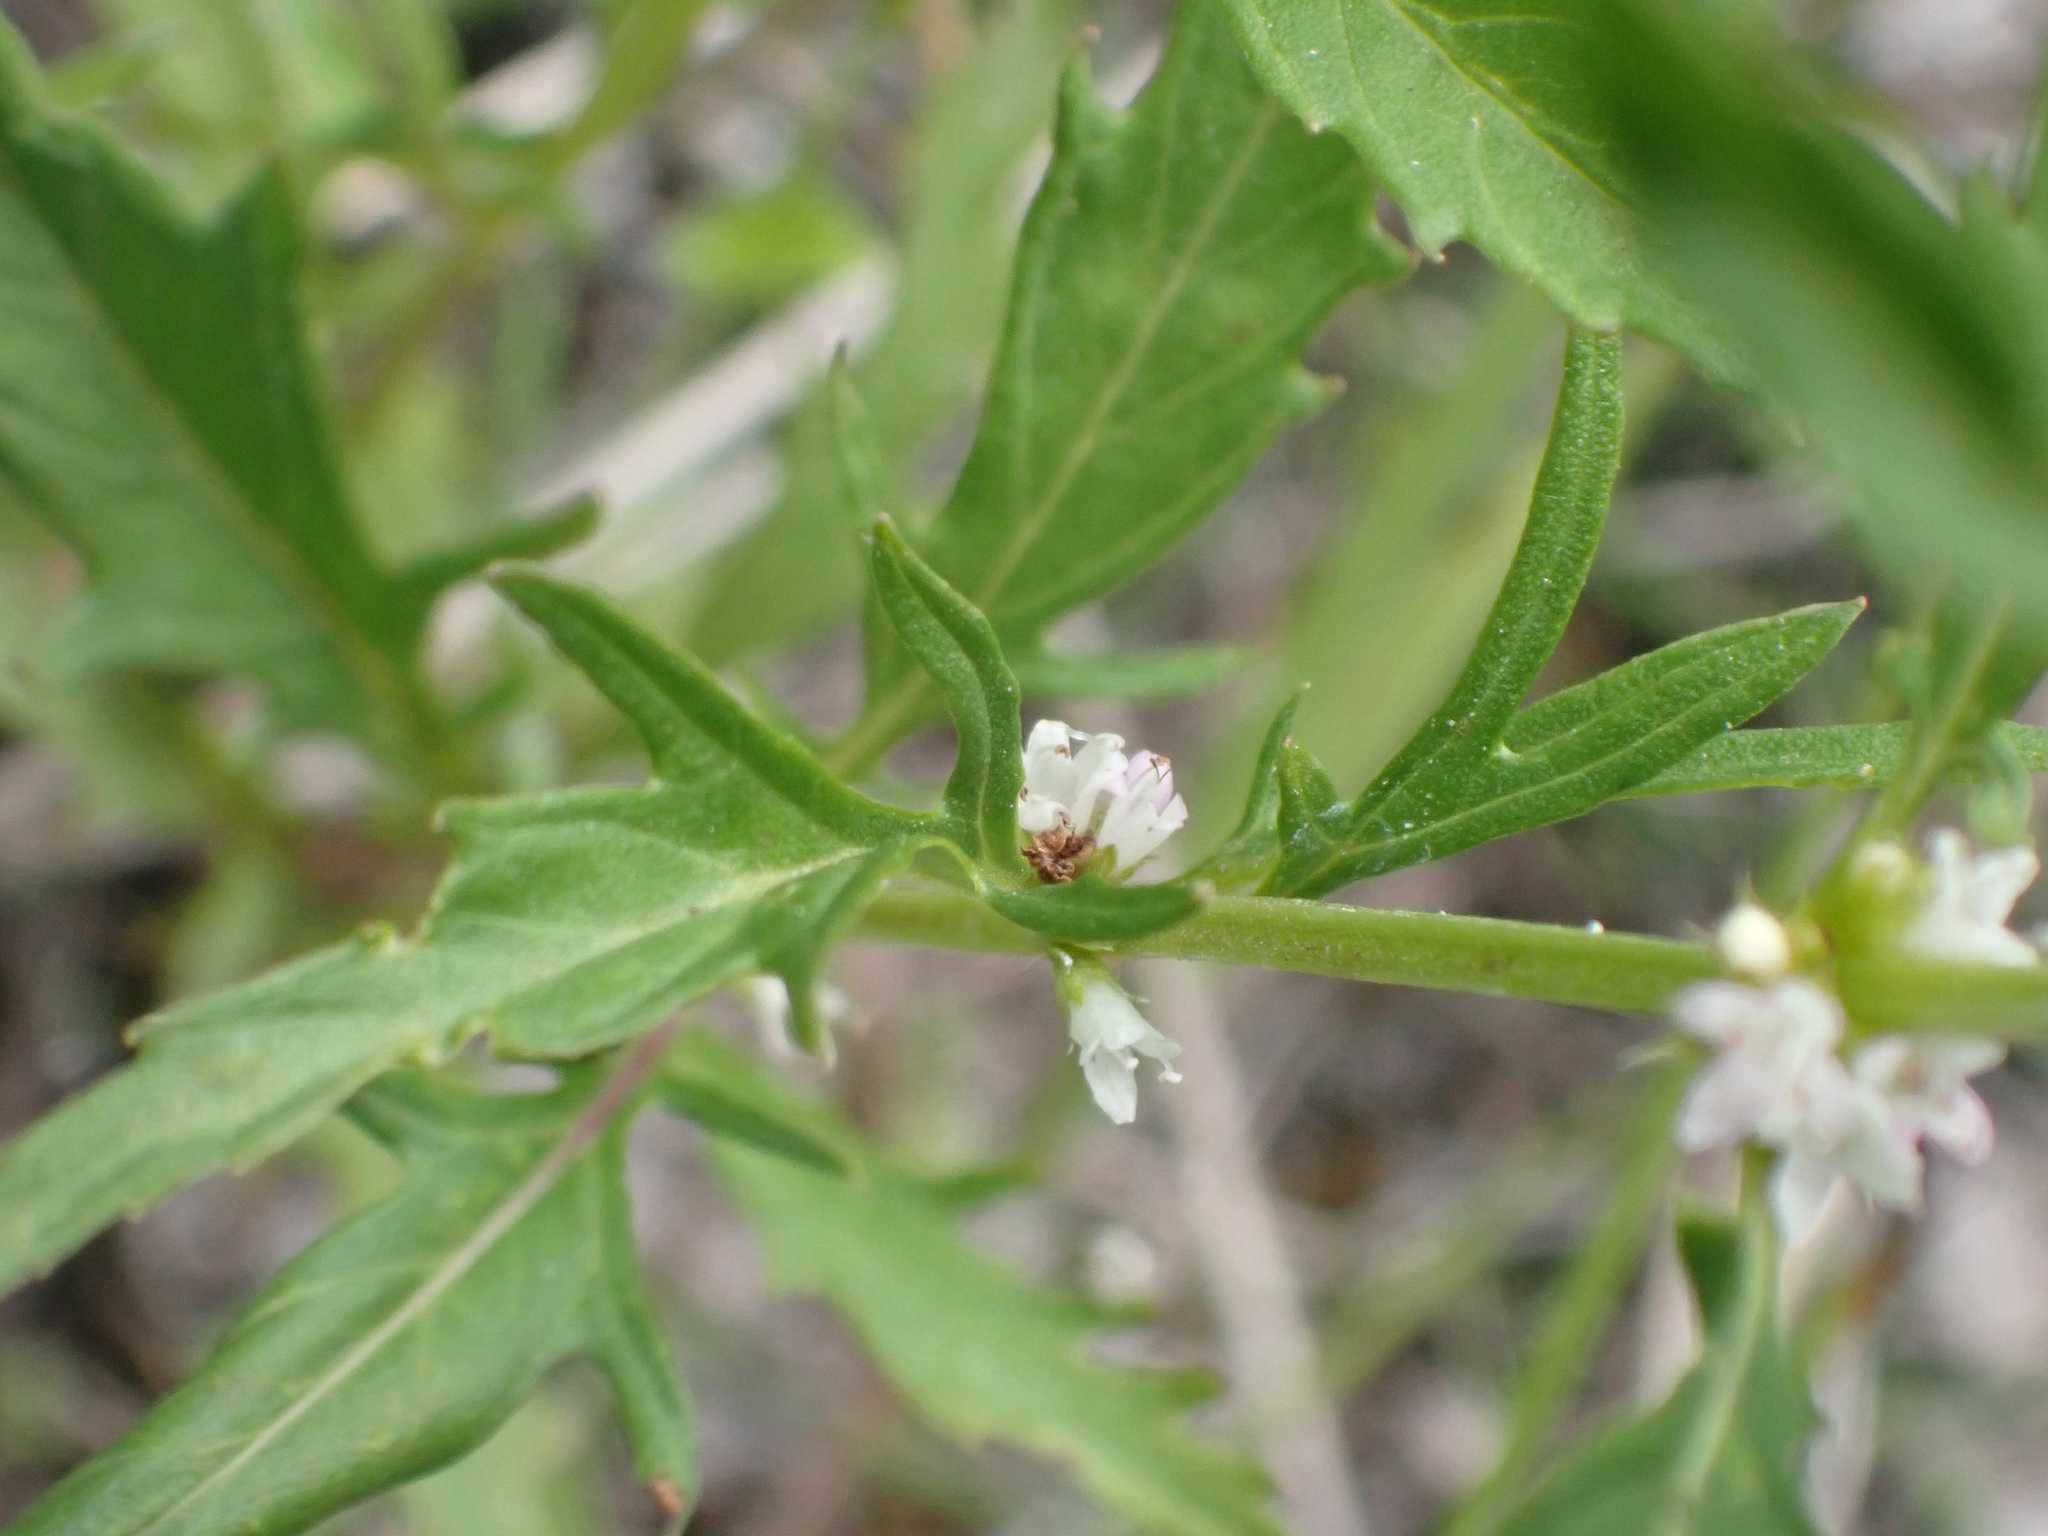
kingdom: Plantae
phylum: Tracheophyta
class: Magnoliopsida
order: Lamiales
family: Lamiaceae
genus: Lycopus
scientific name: Lycopus americanus
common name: American bugleweed
